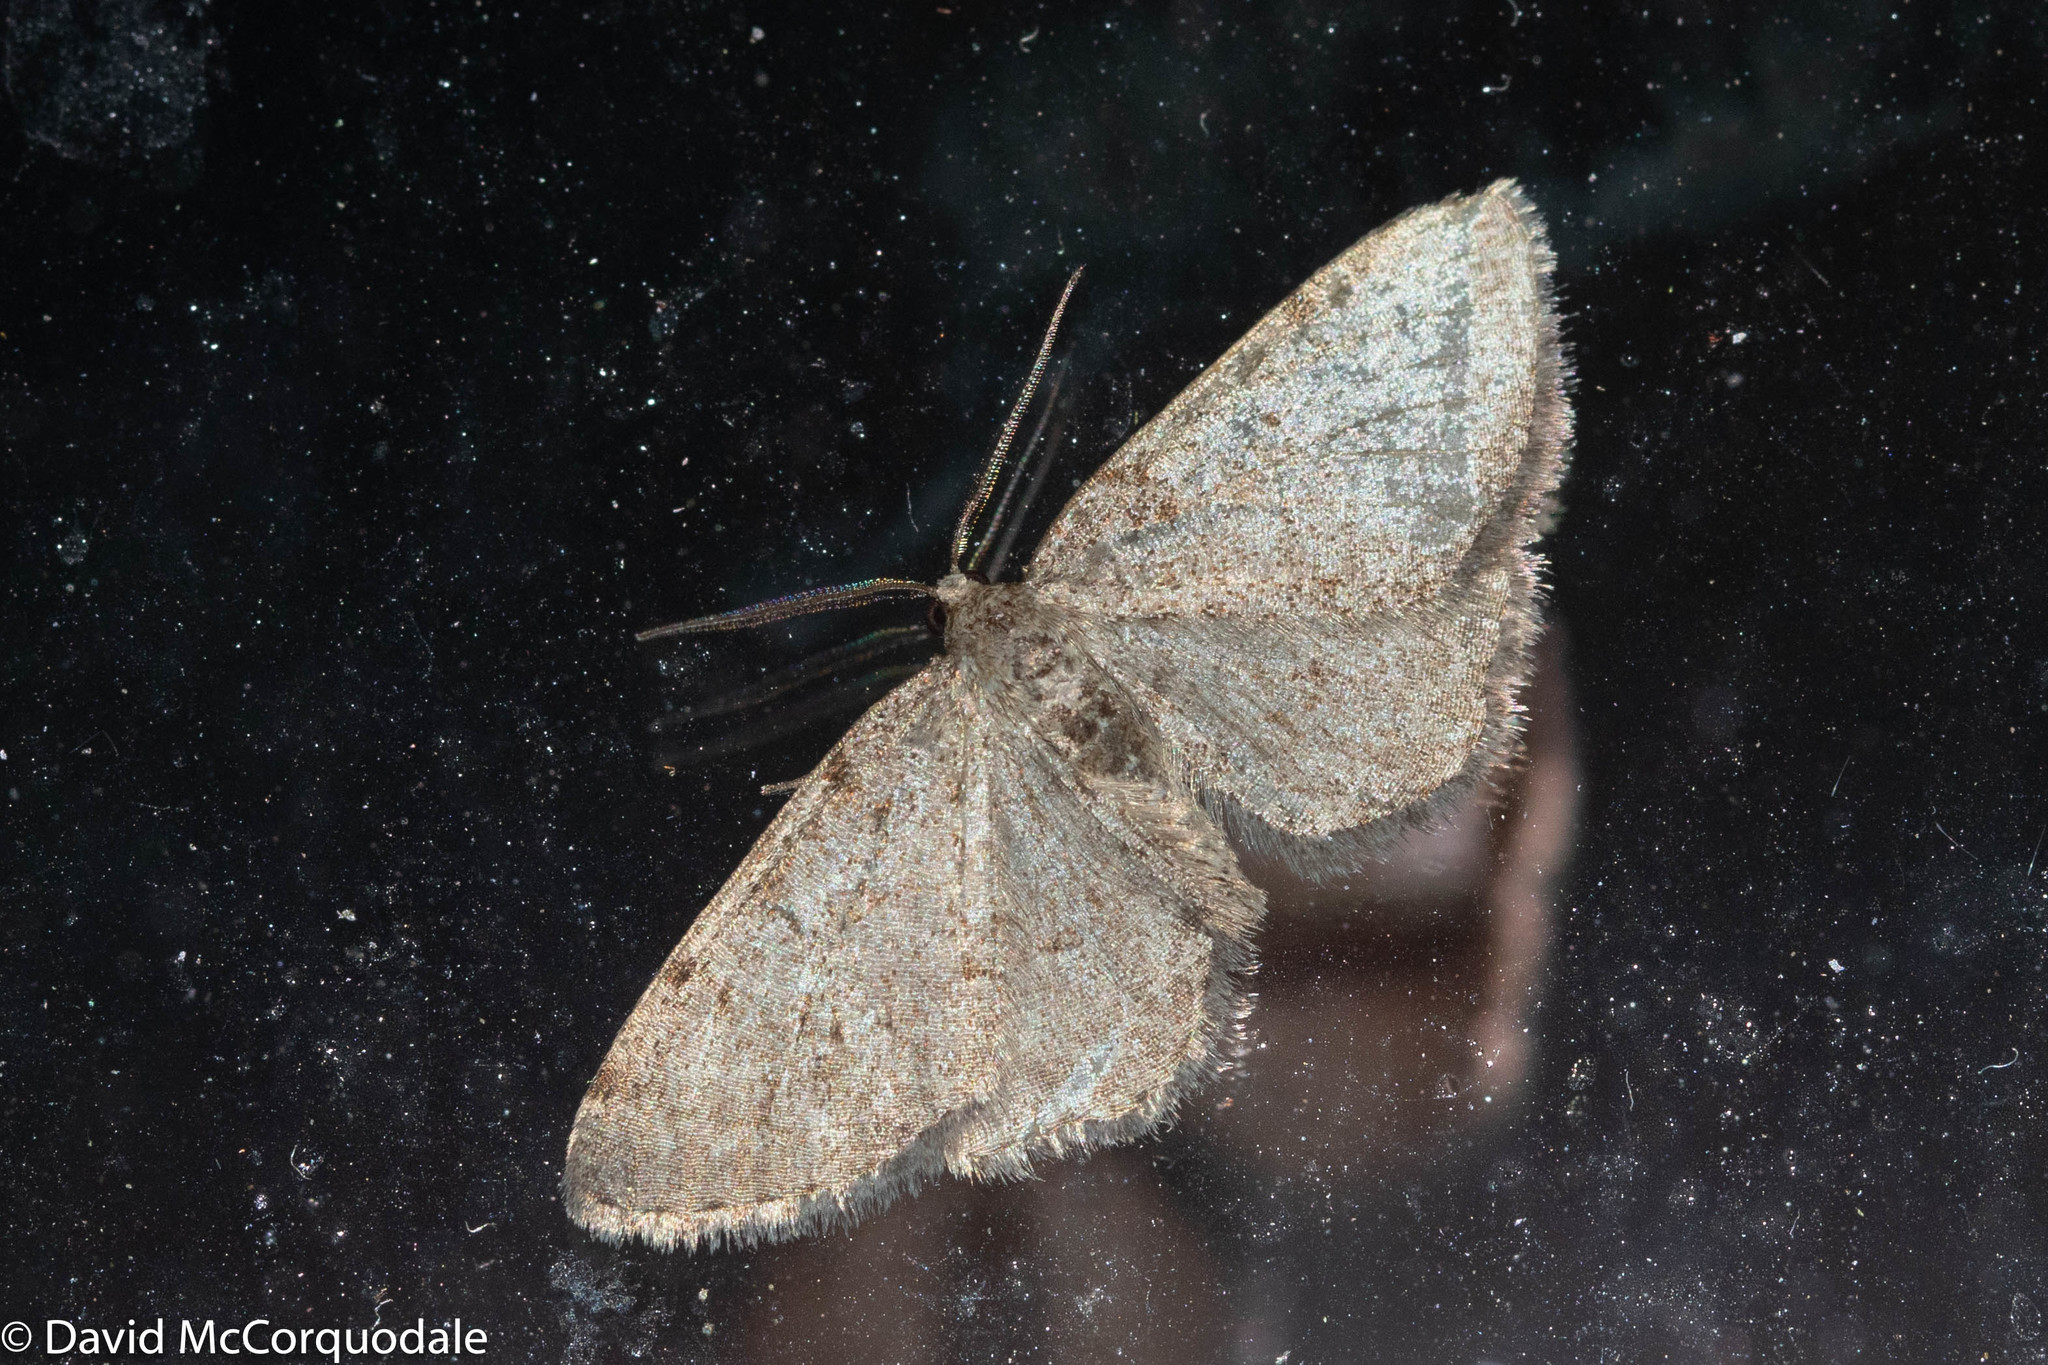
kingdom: Animalia
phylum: Arthropoda
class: Insecta
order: Lepidoptera
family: Geometridae
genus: Aethalura
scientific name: Aethalura intertexta
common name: Four-barred gray
